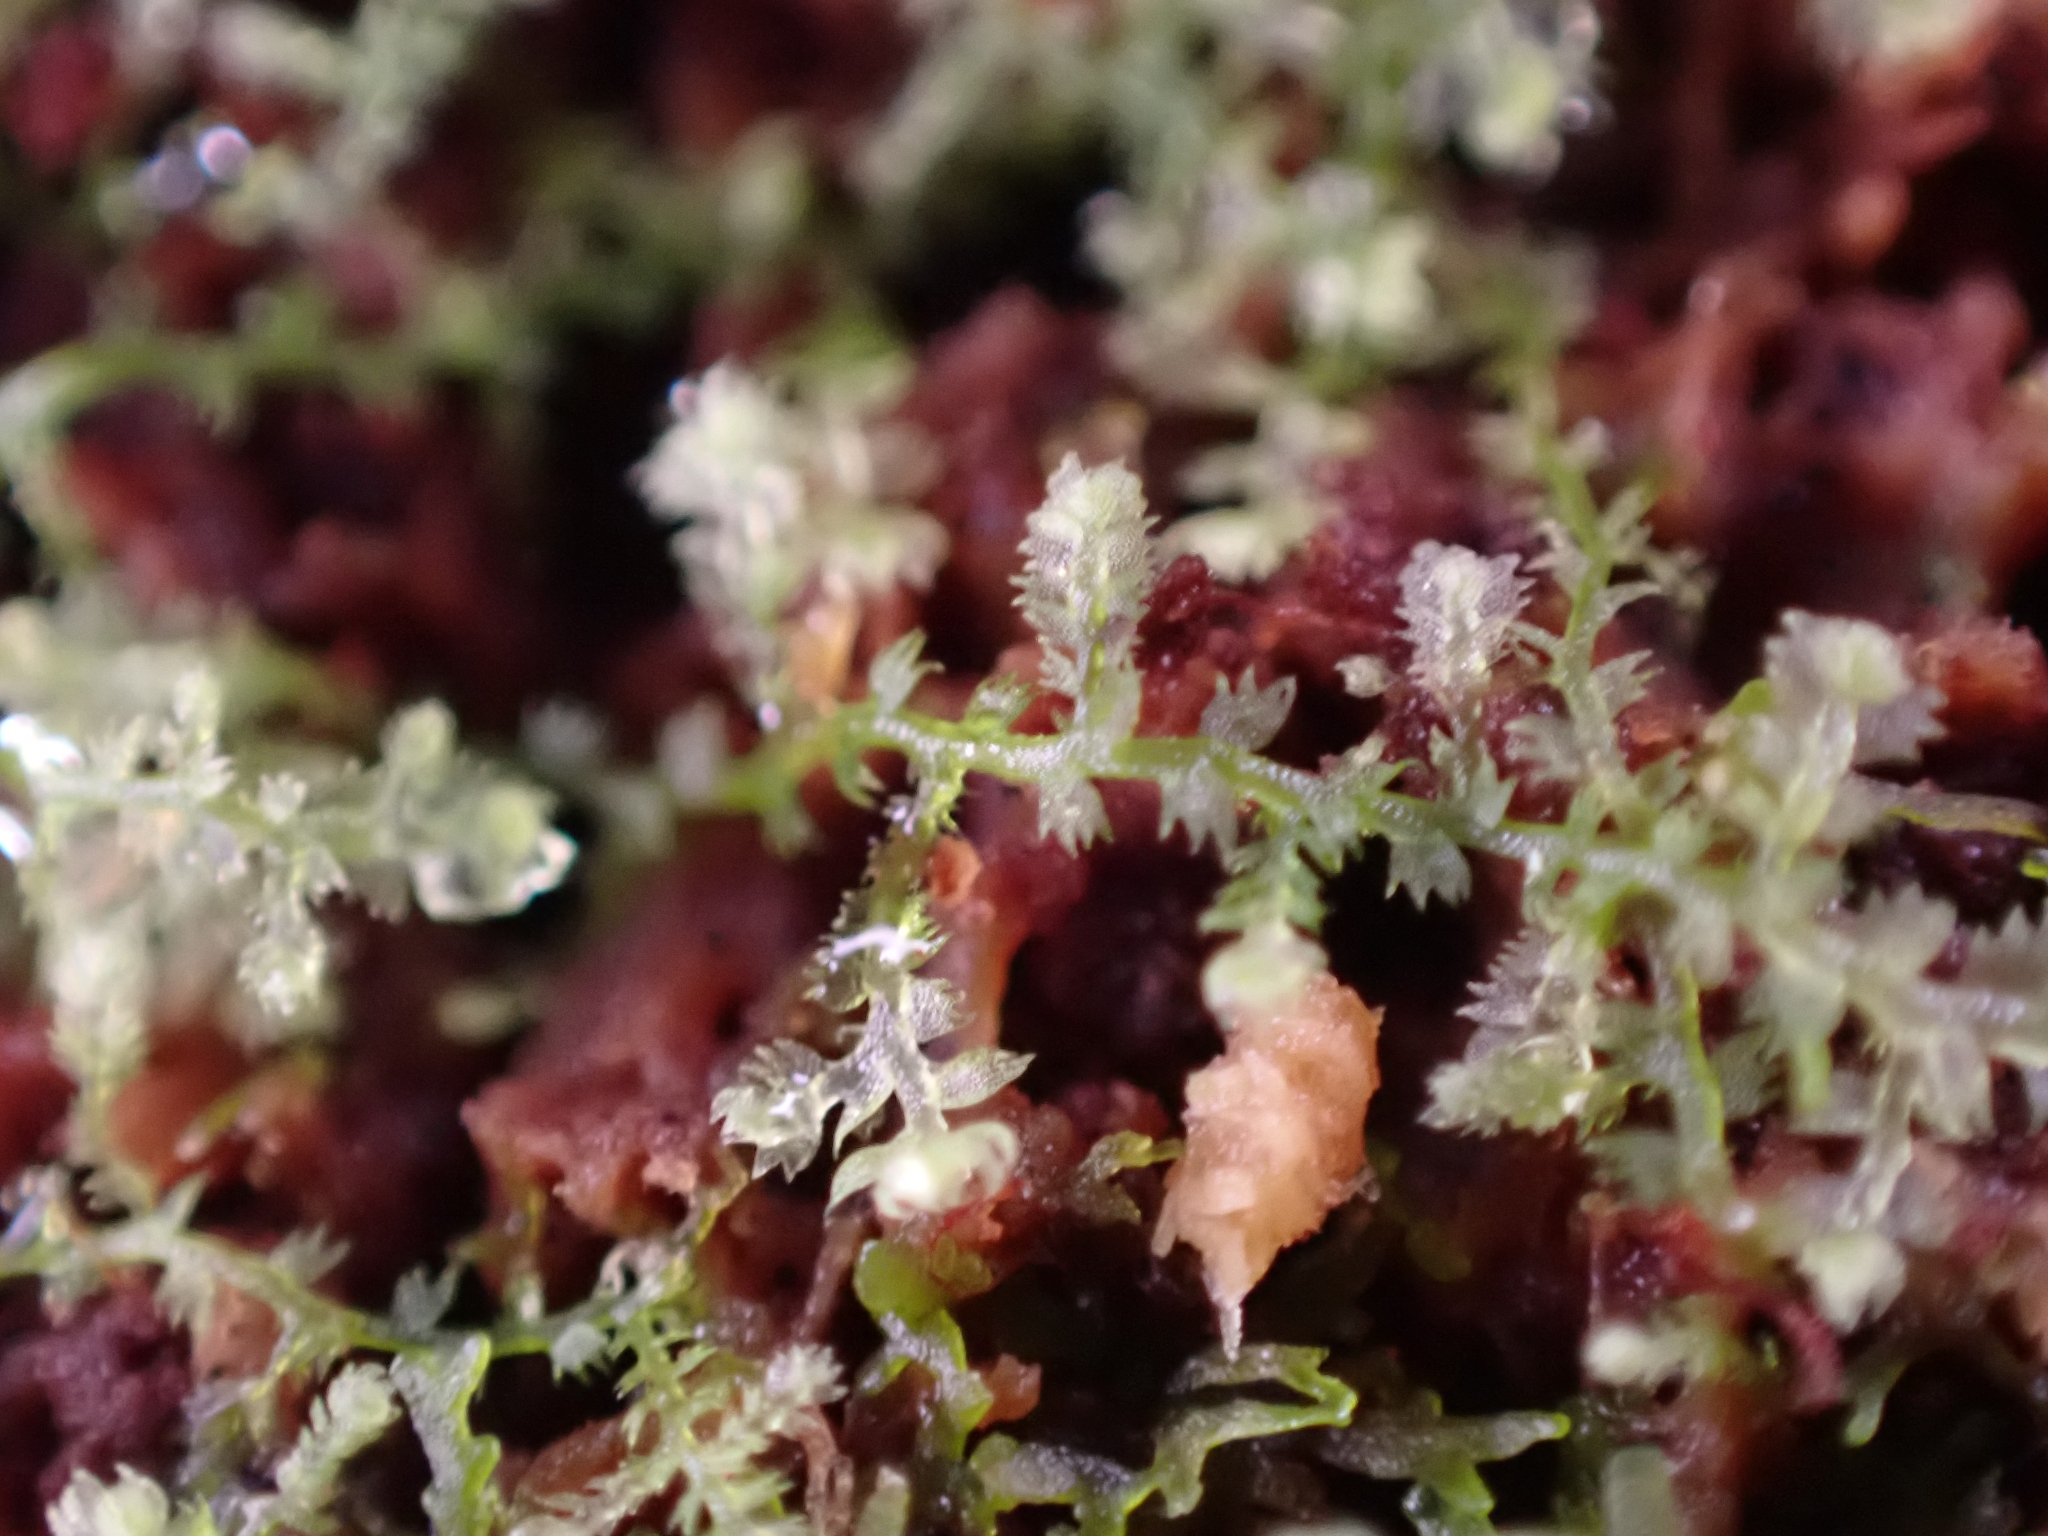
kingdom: Plantae
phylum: Marchantiophyta
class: Jungermanniopsida
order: Jungermanniales
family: Lepidoziaceae
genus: Lepidozia
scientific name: Lepidozia reptans
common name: Creeping fingerwort
